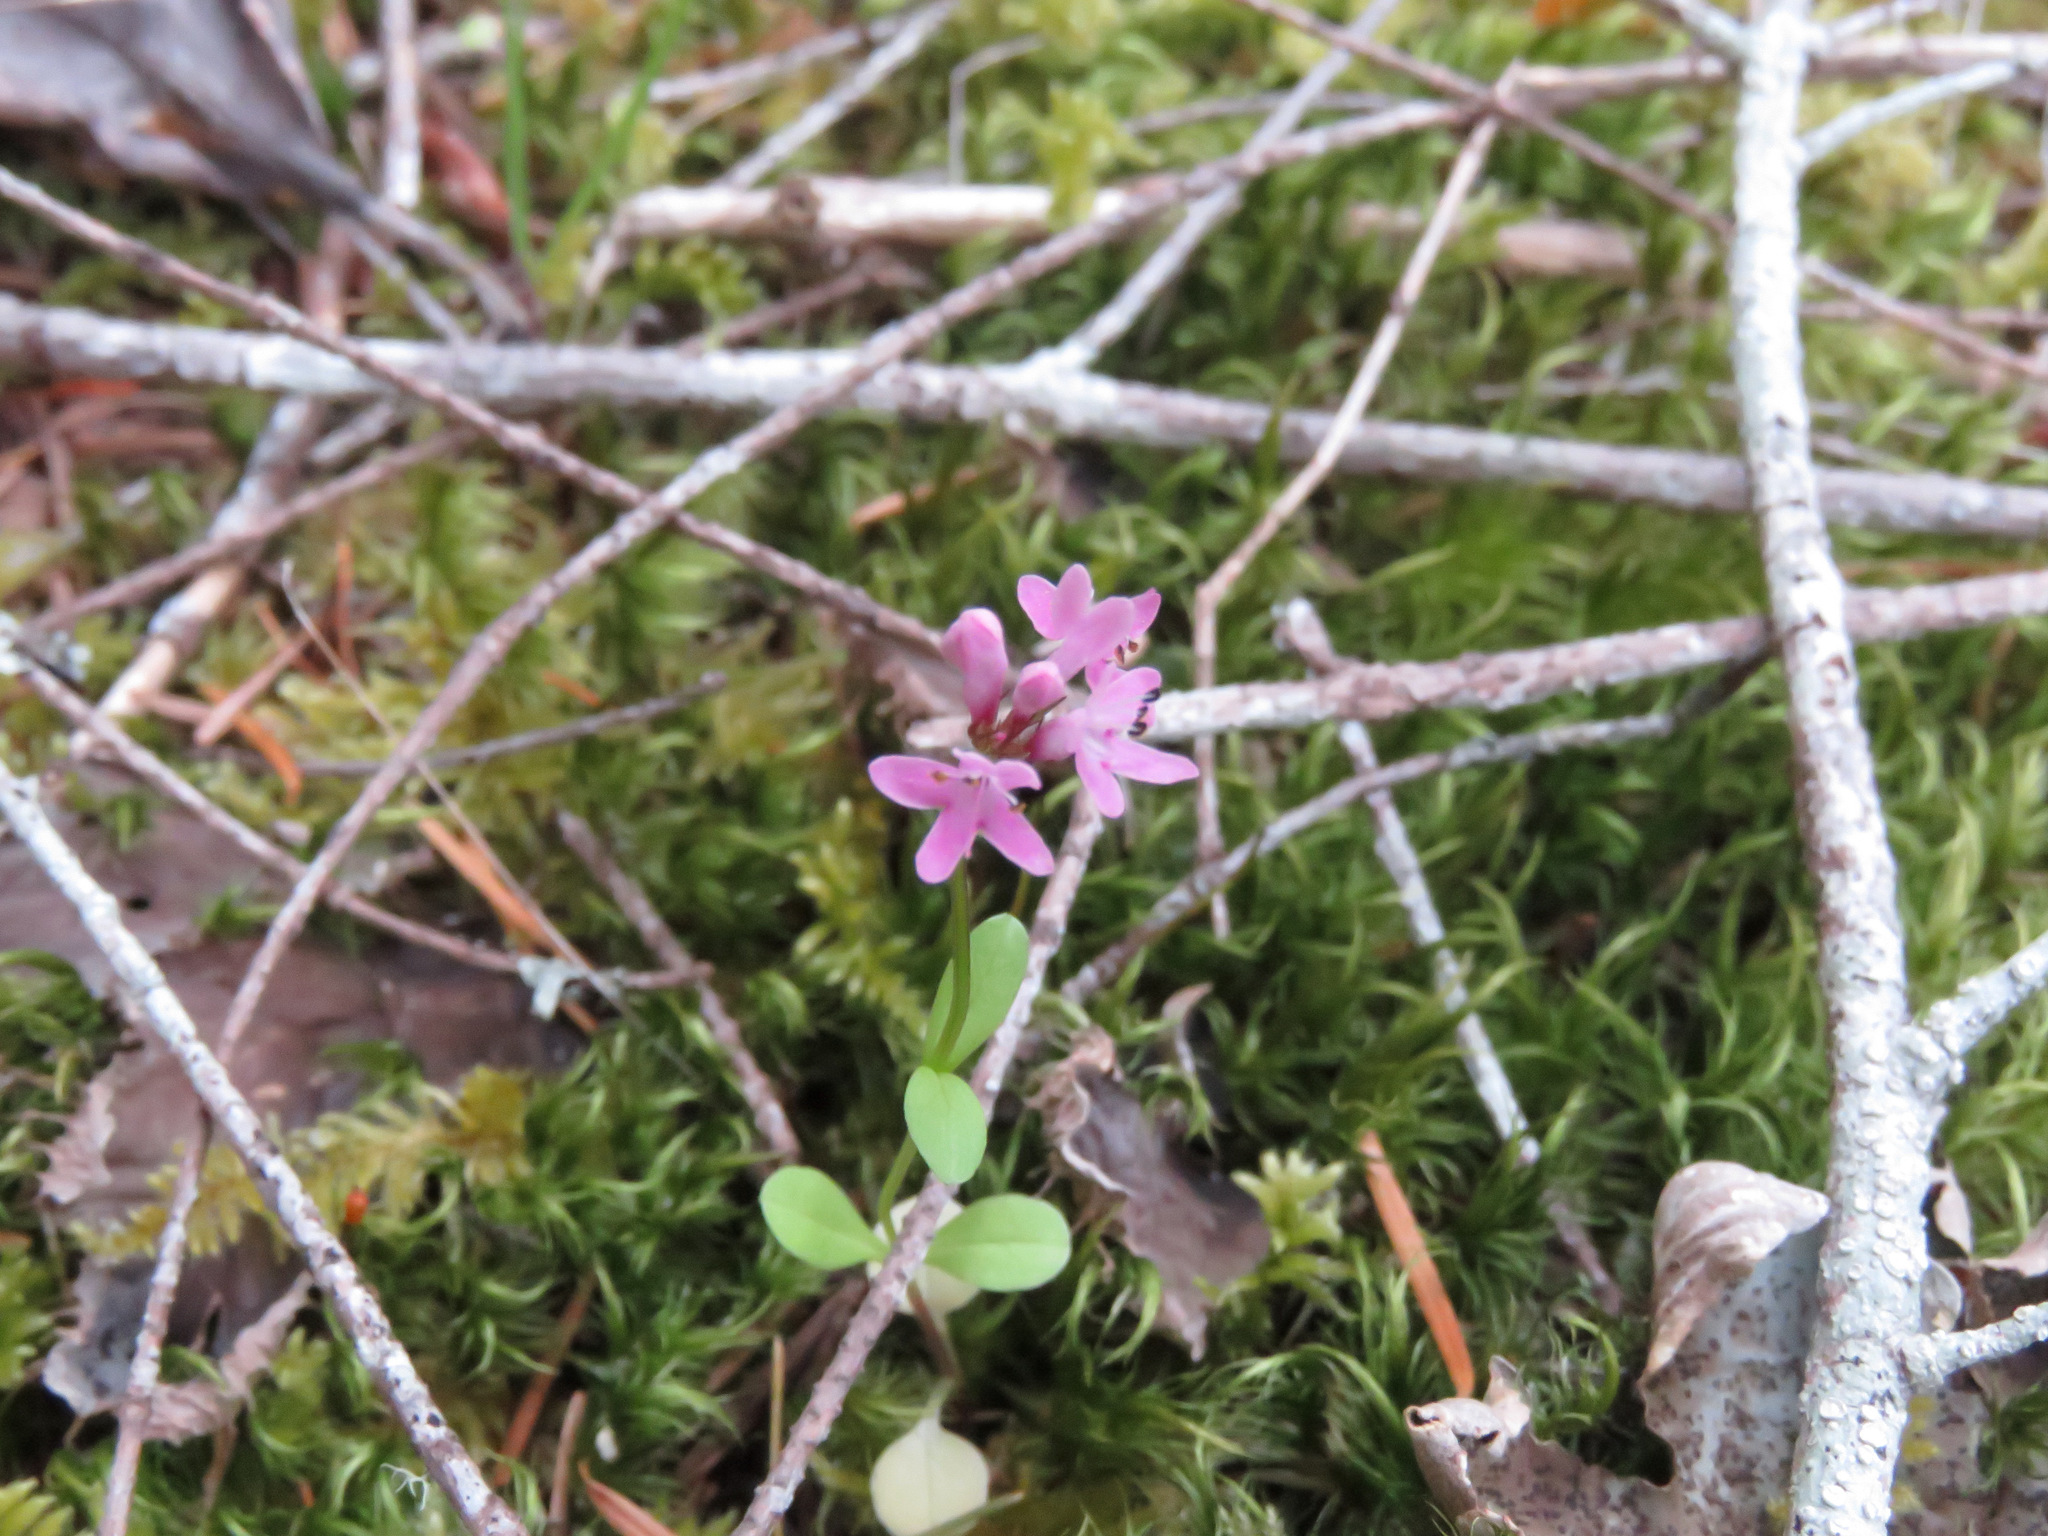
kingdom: Plantae
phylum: Tracheophyta
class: Magnoliopsida
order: Dipsacales
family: Caprifoliaceae
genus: Plectritis
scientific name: Plectritis congesta
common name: Pink plectritis
